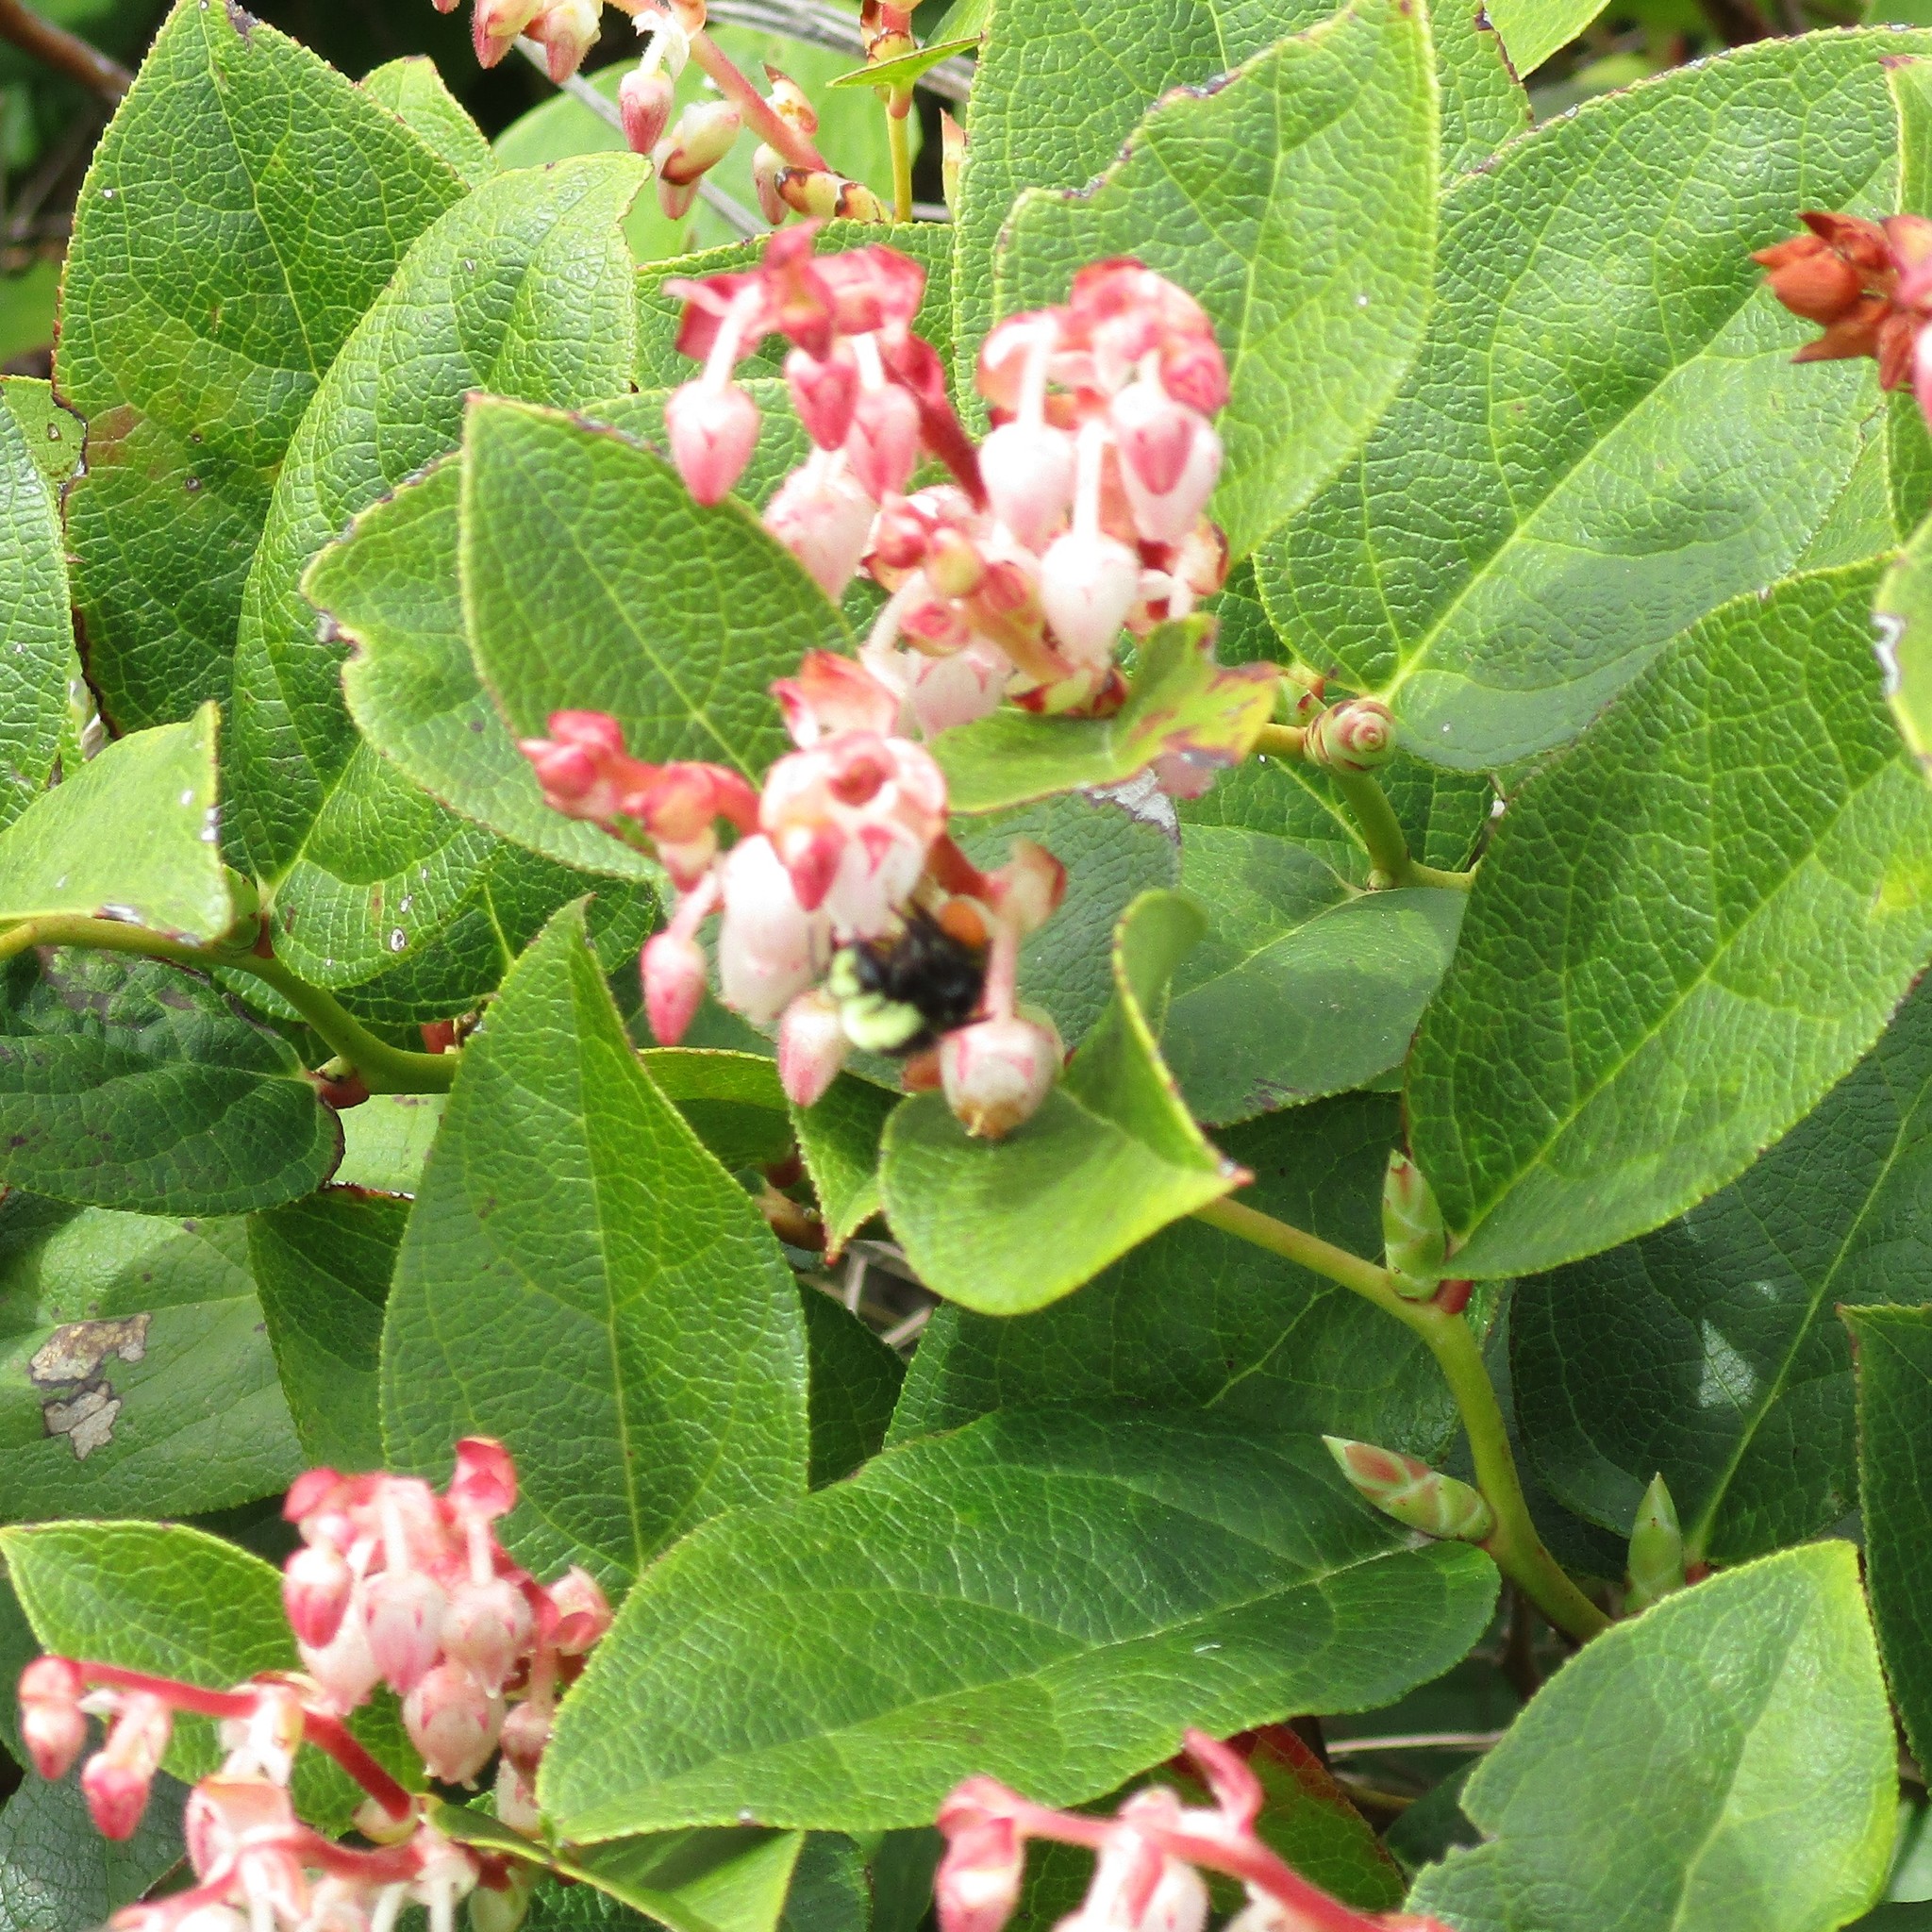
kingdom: Animalia
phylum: Arthropoda
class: Insecta
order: Hymenoptera
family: Apidae
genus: Bombus
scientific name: Bombus vosnesenskii
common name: Vosnesensky bumble bee
